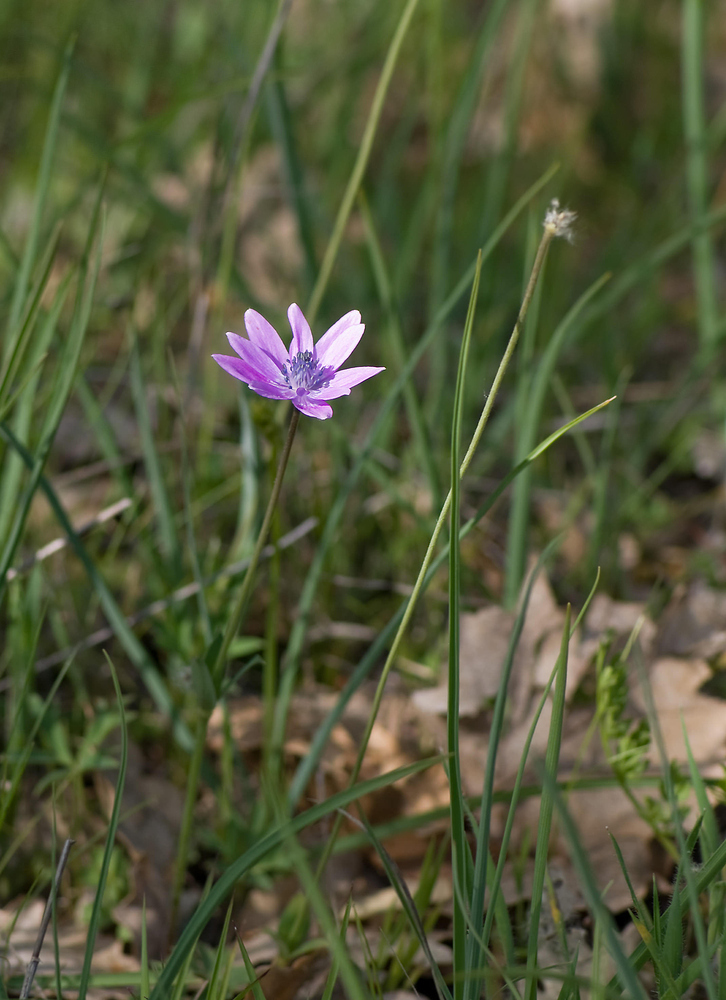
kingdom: Plantae
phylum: Tracheophyta
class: Magnoliopsida
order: Ranunculales
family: Ranunculaceae
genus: Anemone
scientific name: Anemone hortensis
